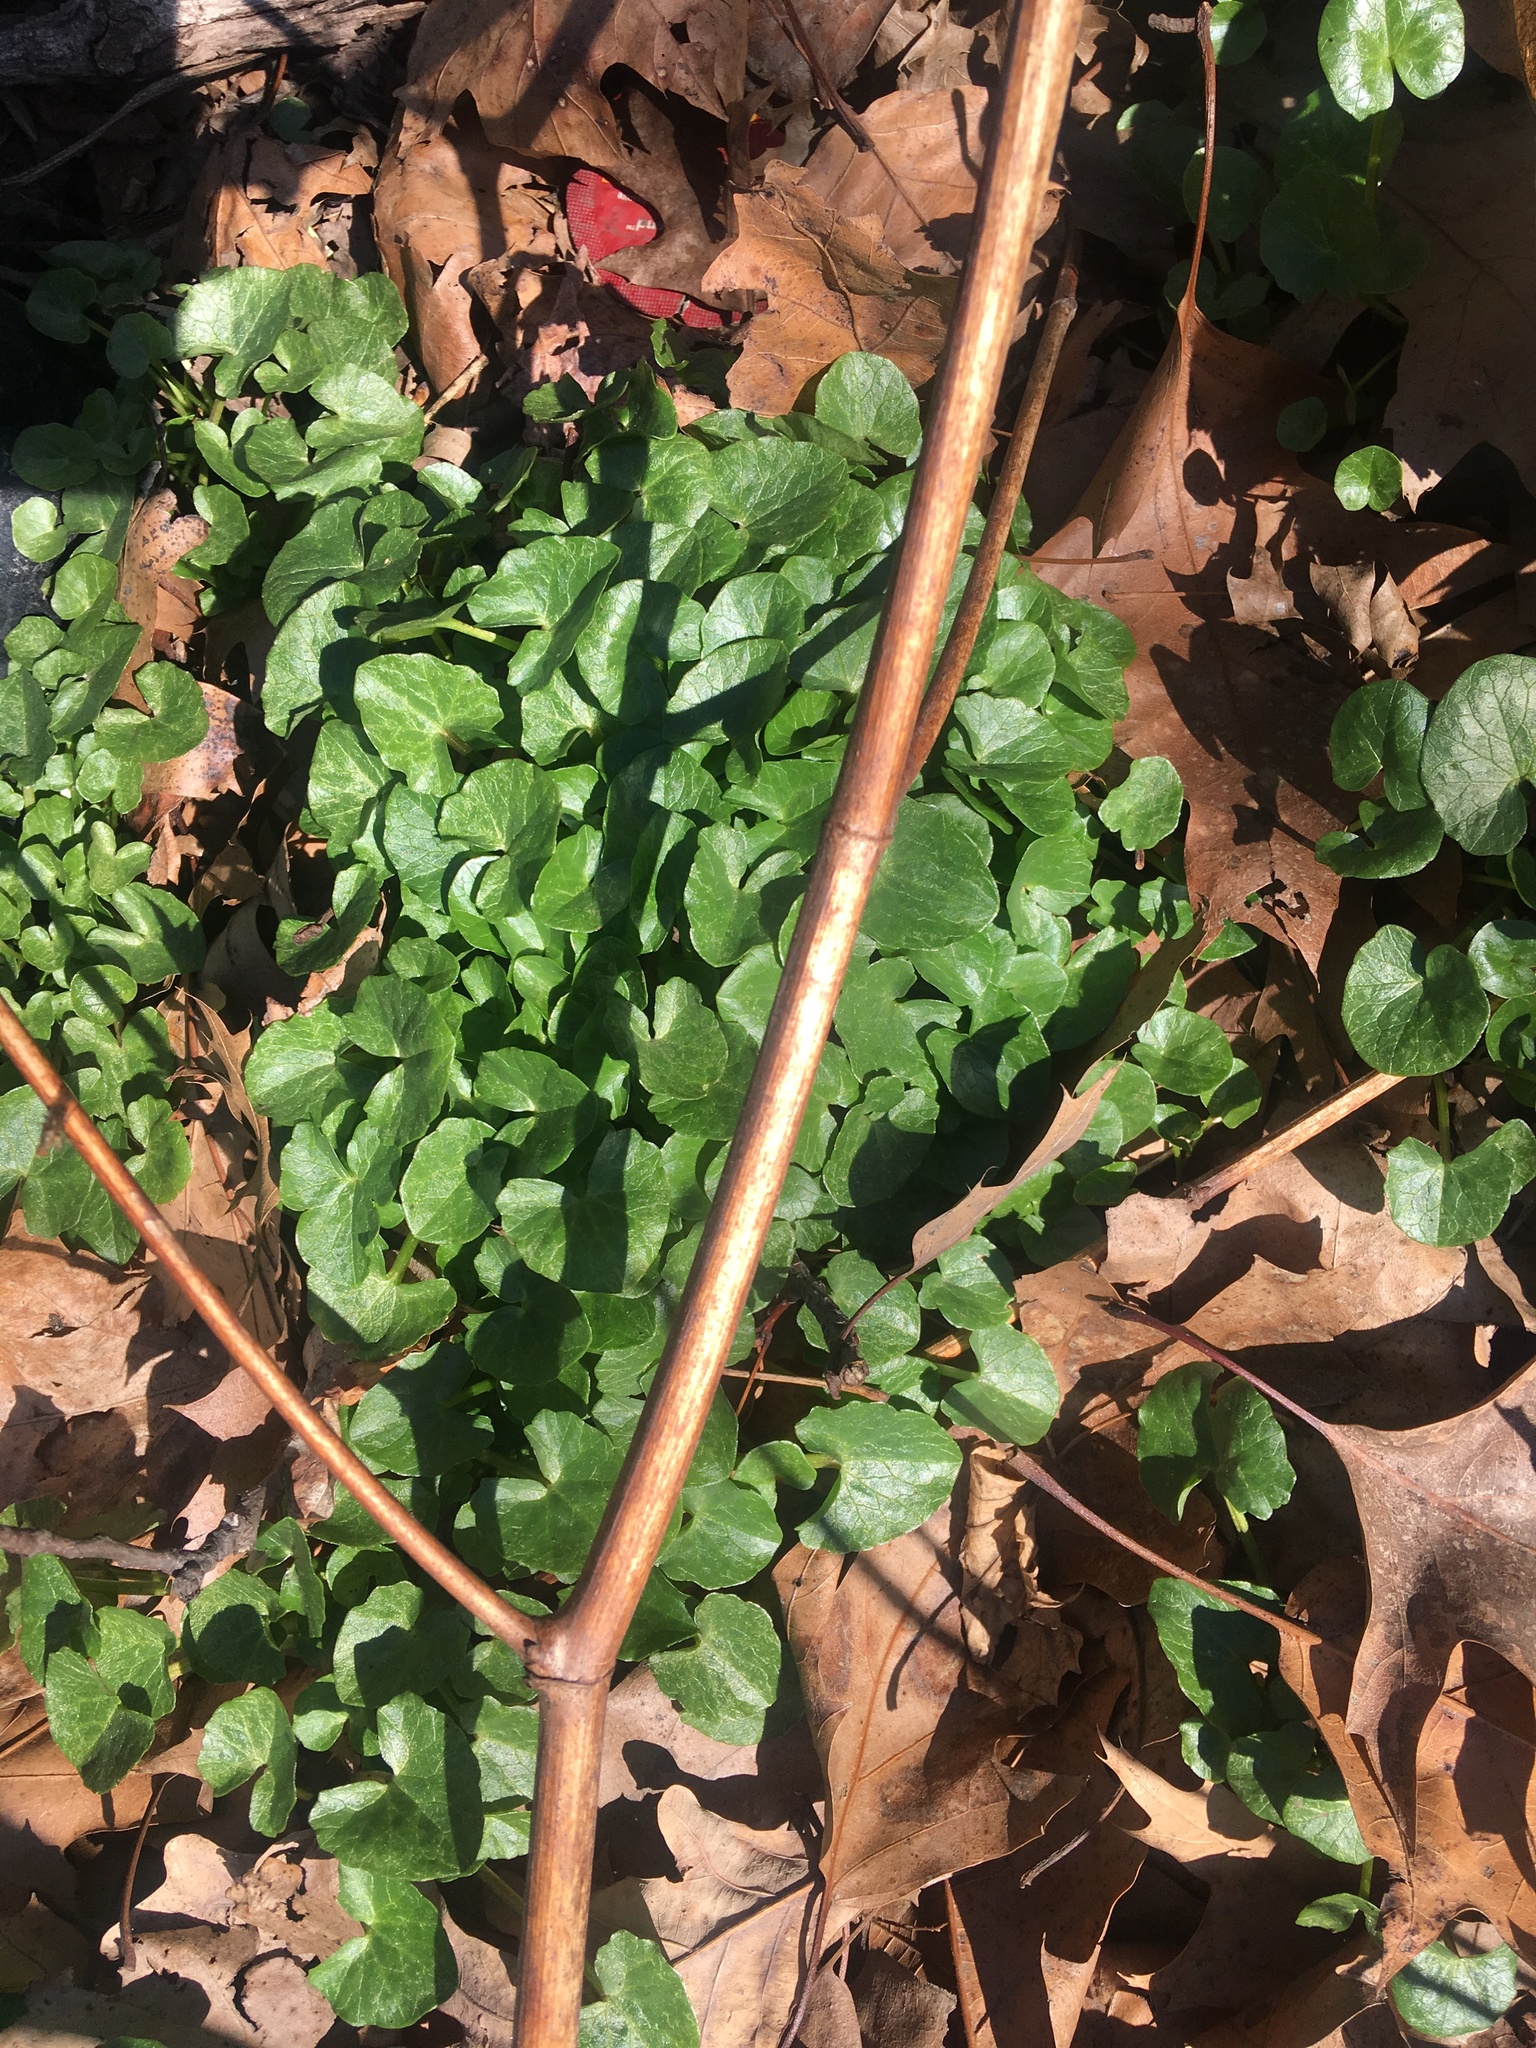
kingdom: Plantae
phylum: Tracheophyta
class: Magnoliopsida
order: Ranunculales
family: Ranunculaceae
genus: Ficaria
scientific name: Ficaria verna
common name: Lesser celandine
